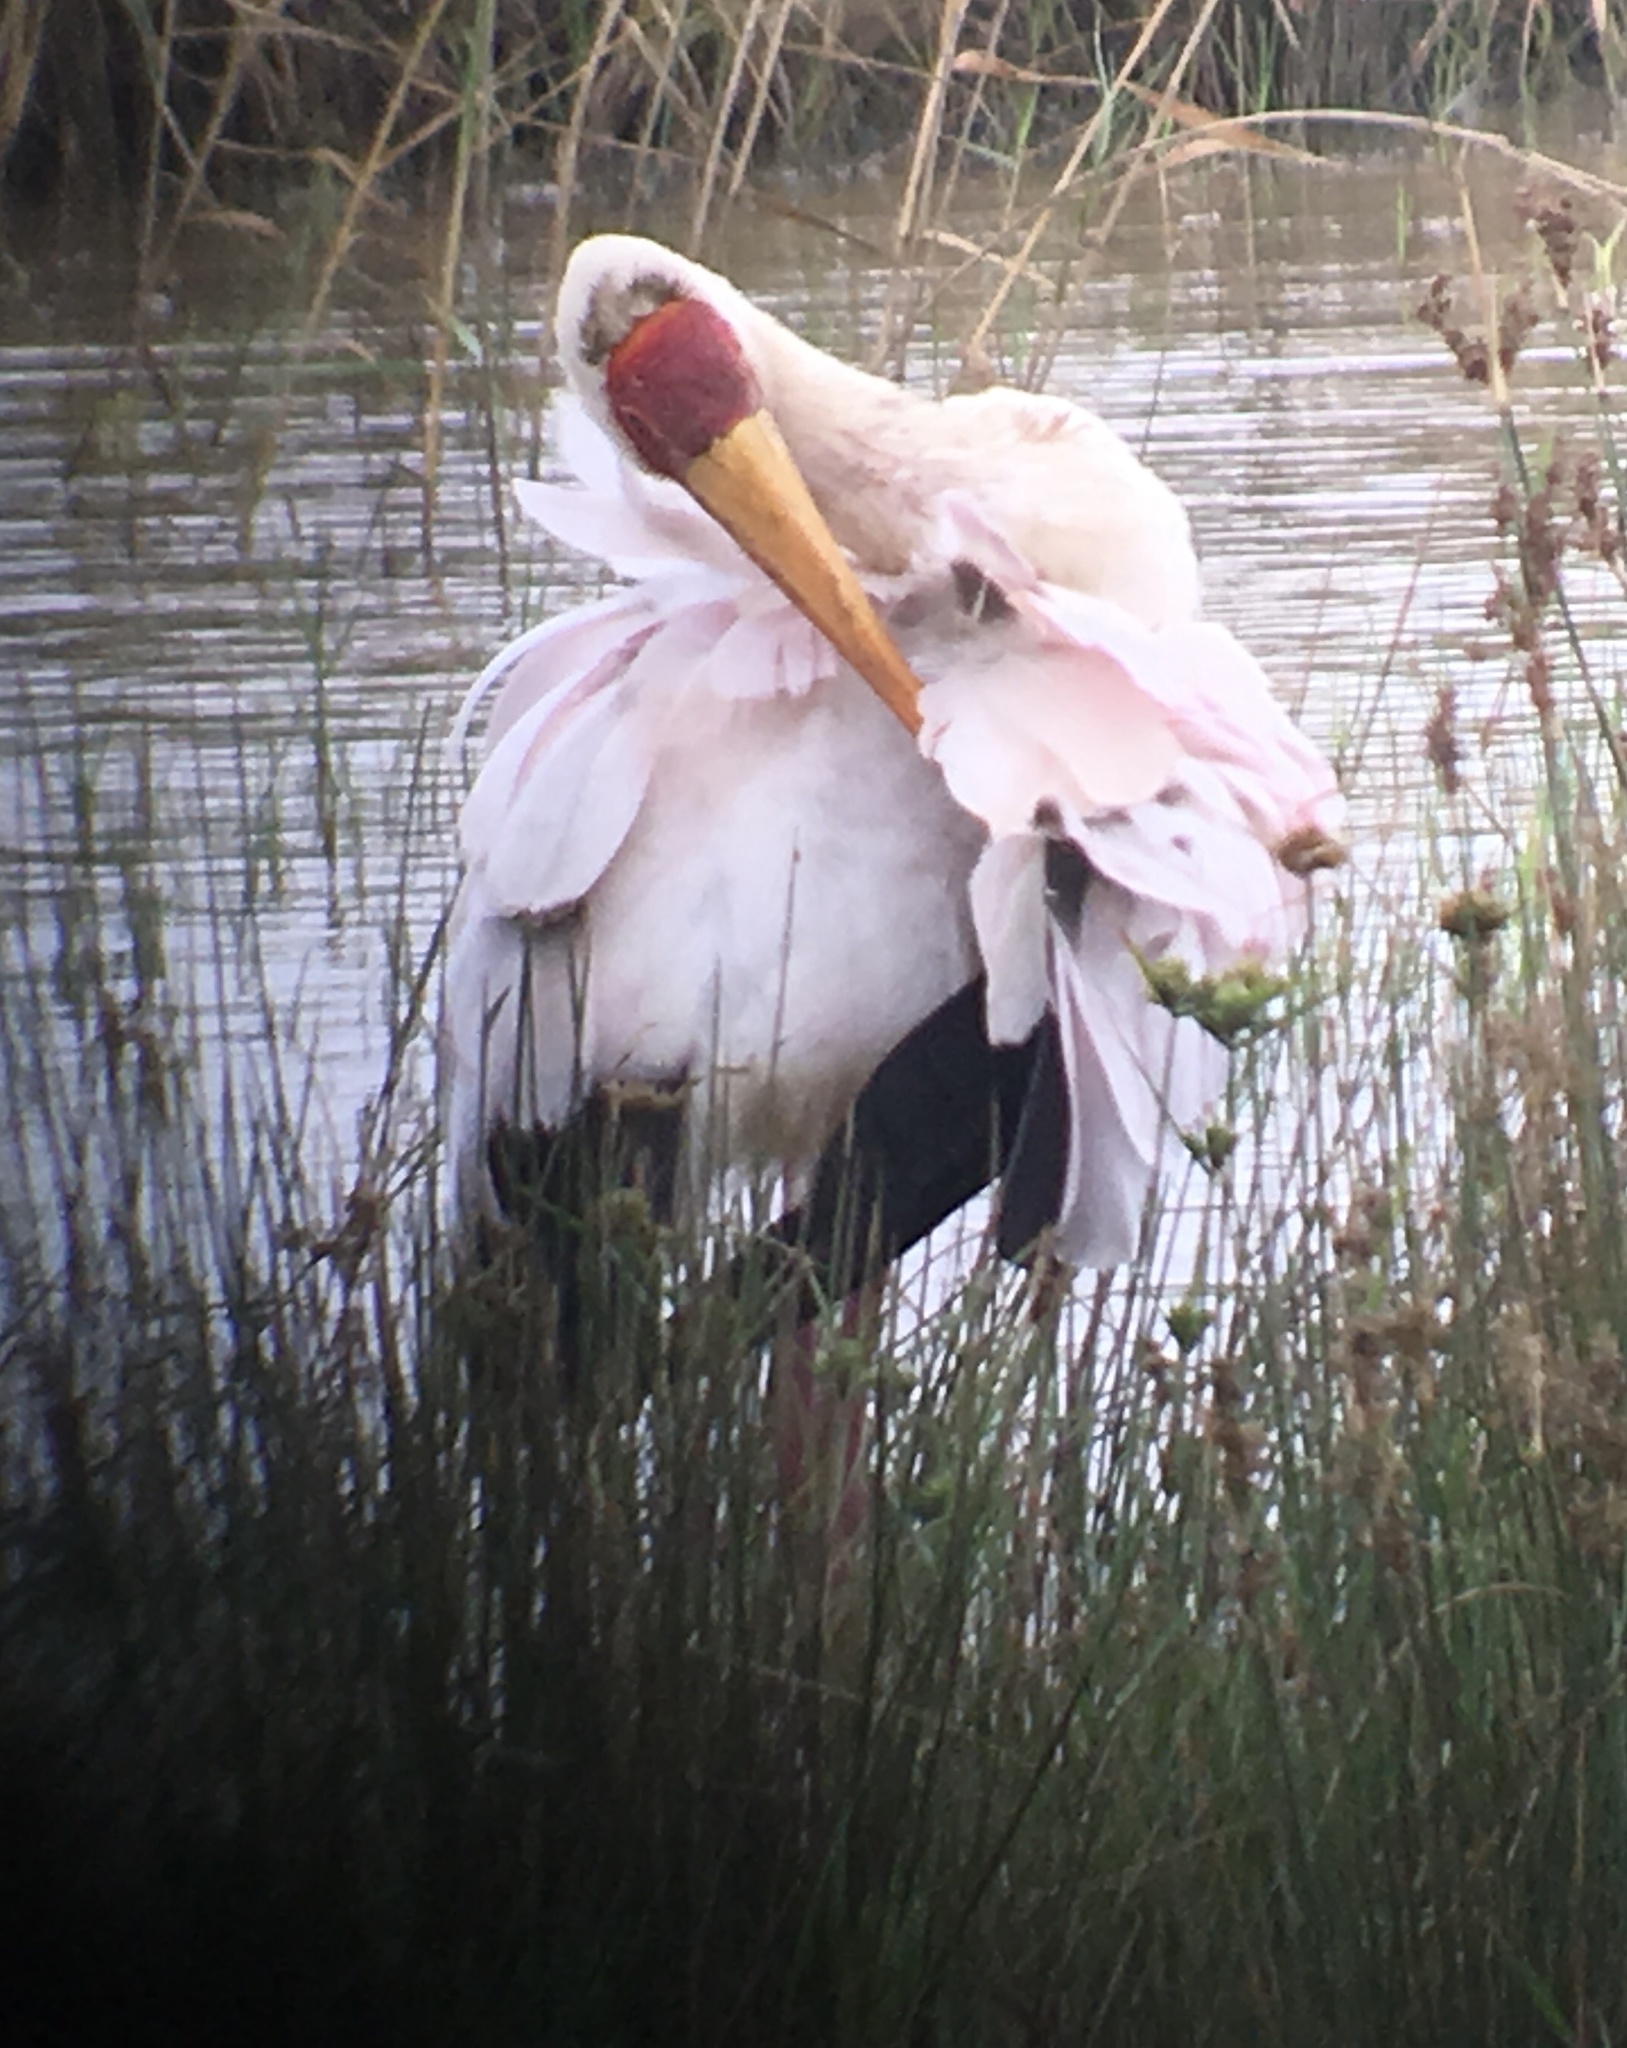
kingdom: Animalia
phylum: Chordata
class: Aves
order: Ciconiiformes
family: Ciconiidae
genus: Mycteria
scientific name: Mycteria ibis
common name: Yellow-billed stork
